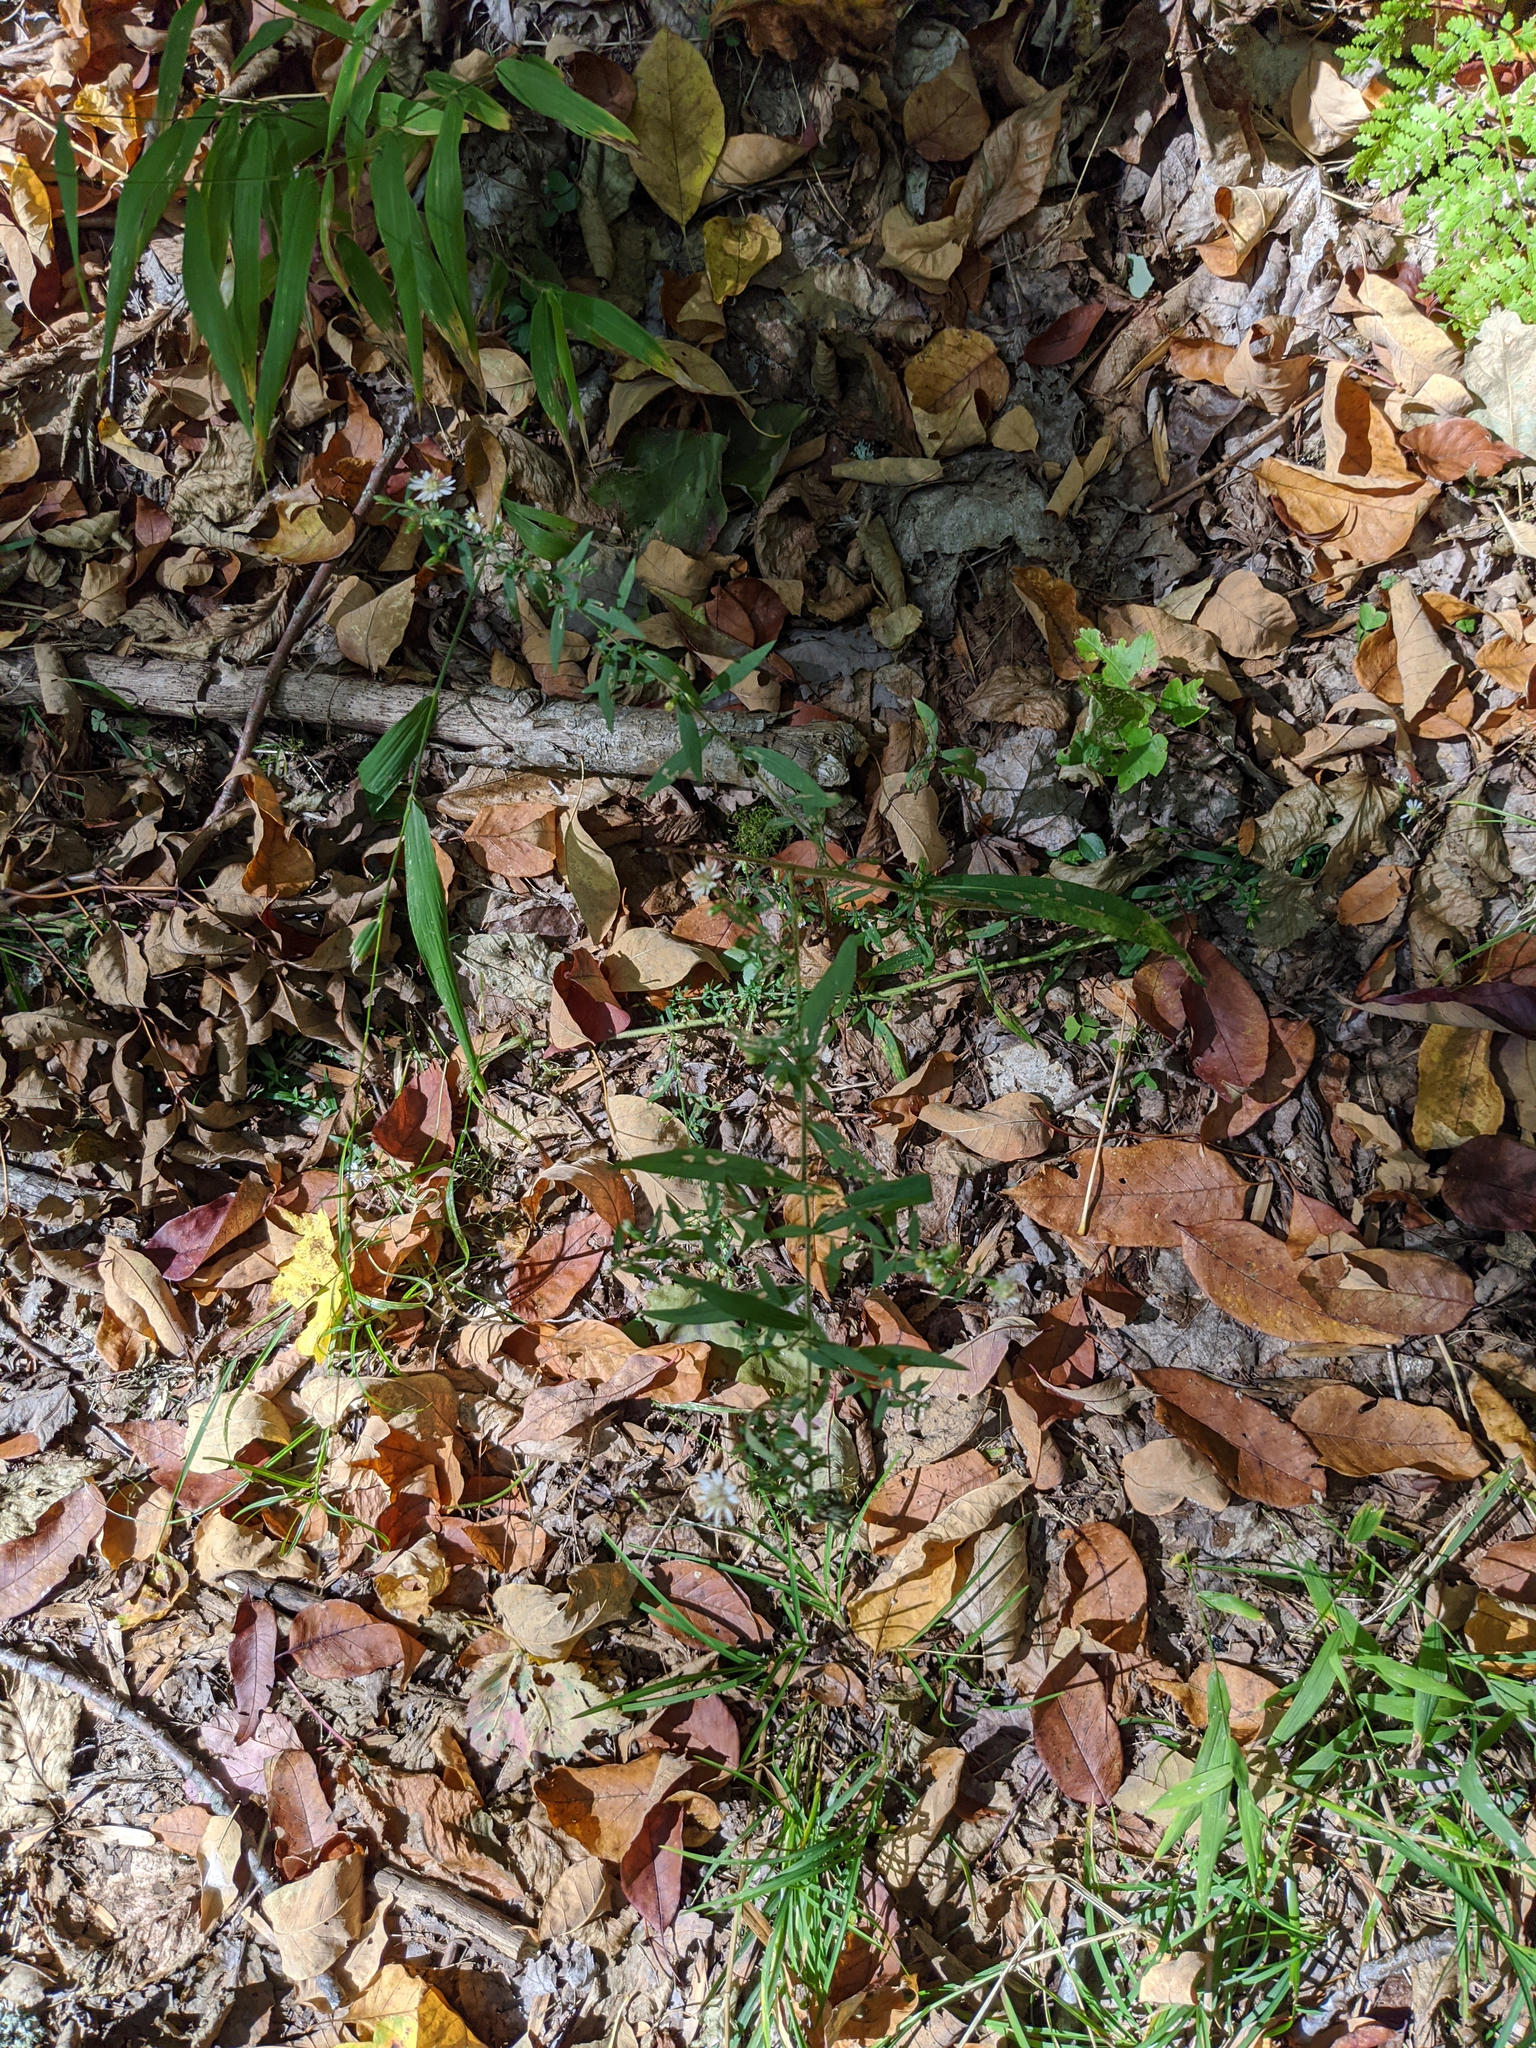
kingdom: Plantae
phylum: Tracheophyta
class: Magnoliopsida
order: Asterales
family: Asteraceae
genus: Symphyotrichum
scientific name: Symphyotrichum lateriflorum
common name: Calico aster
